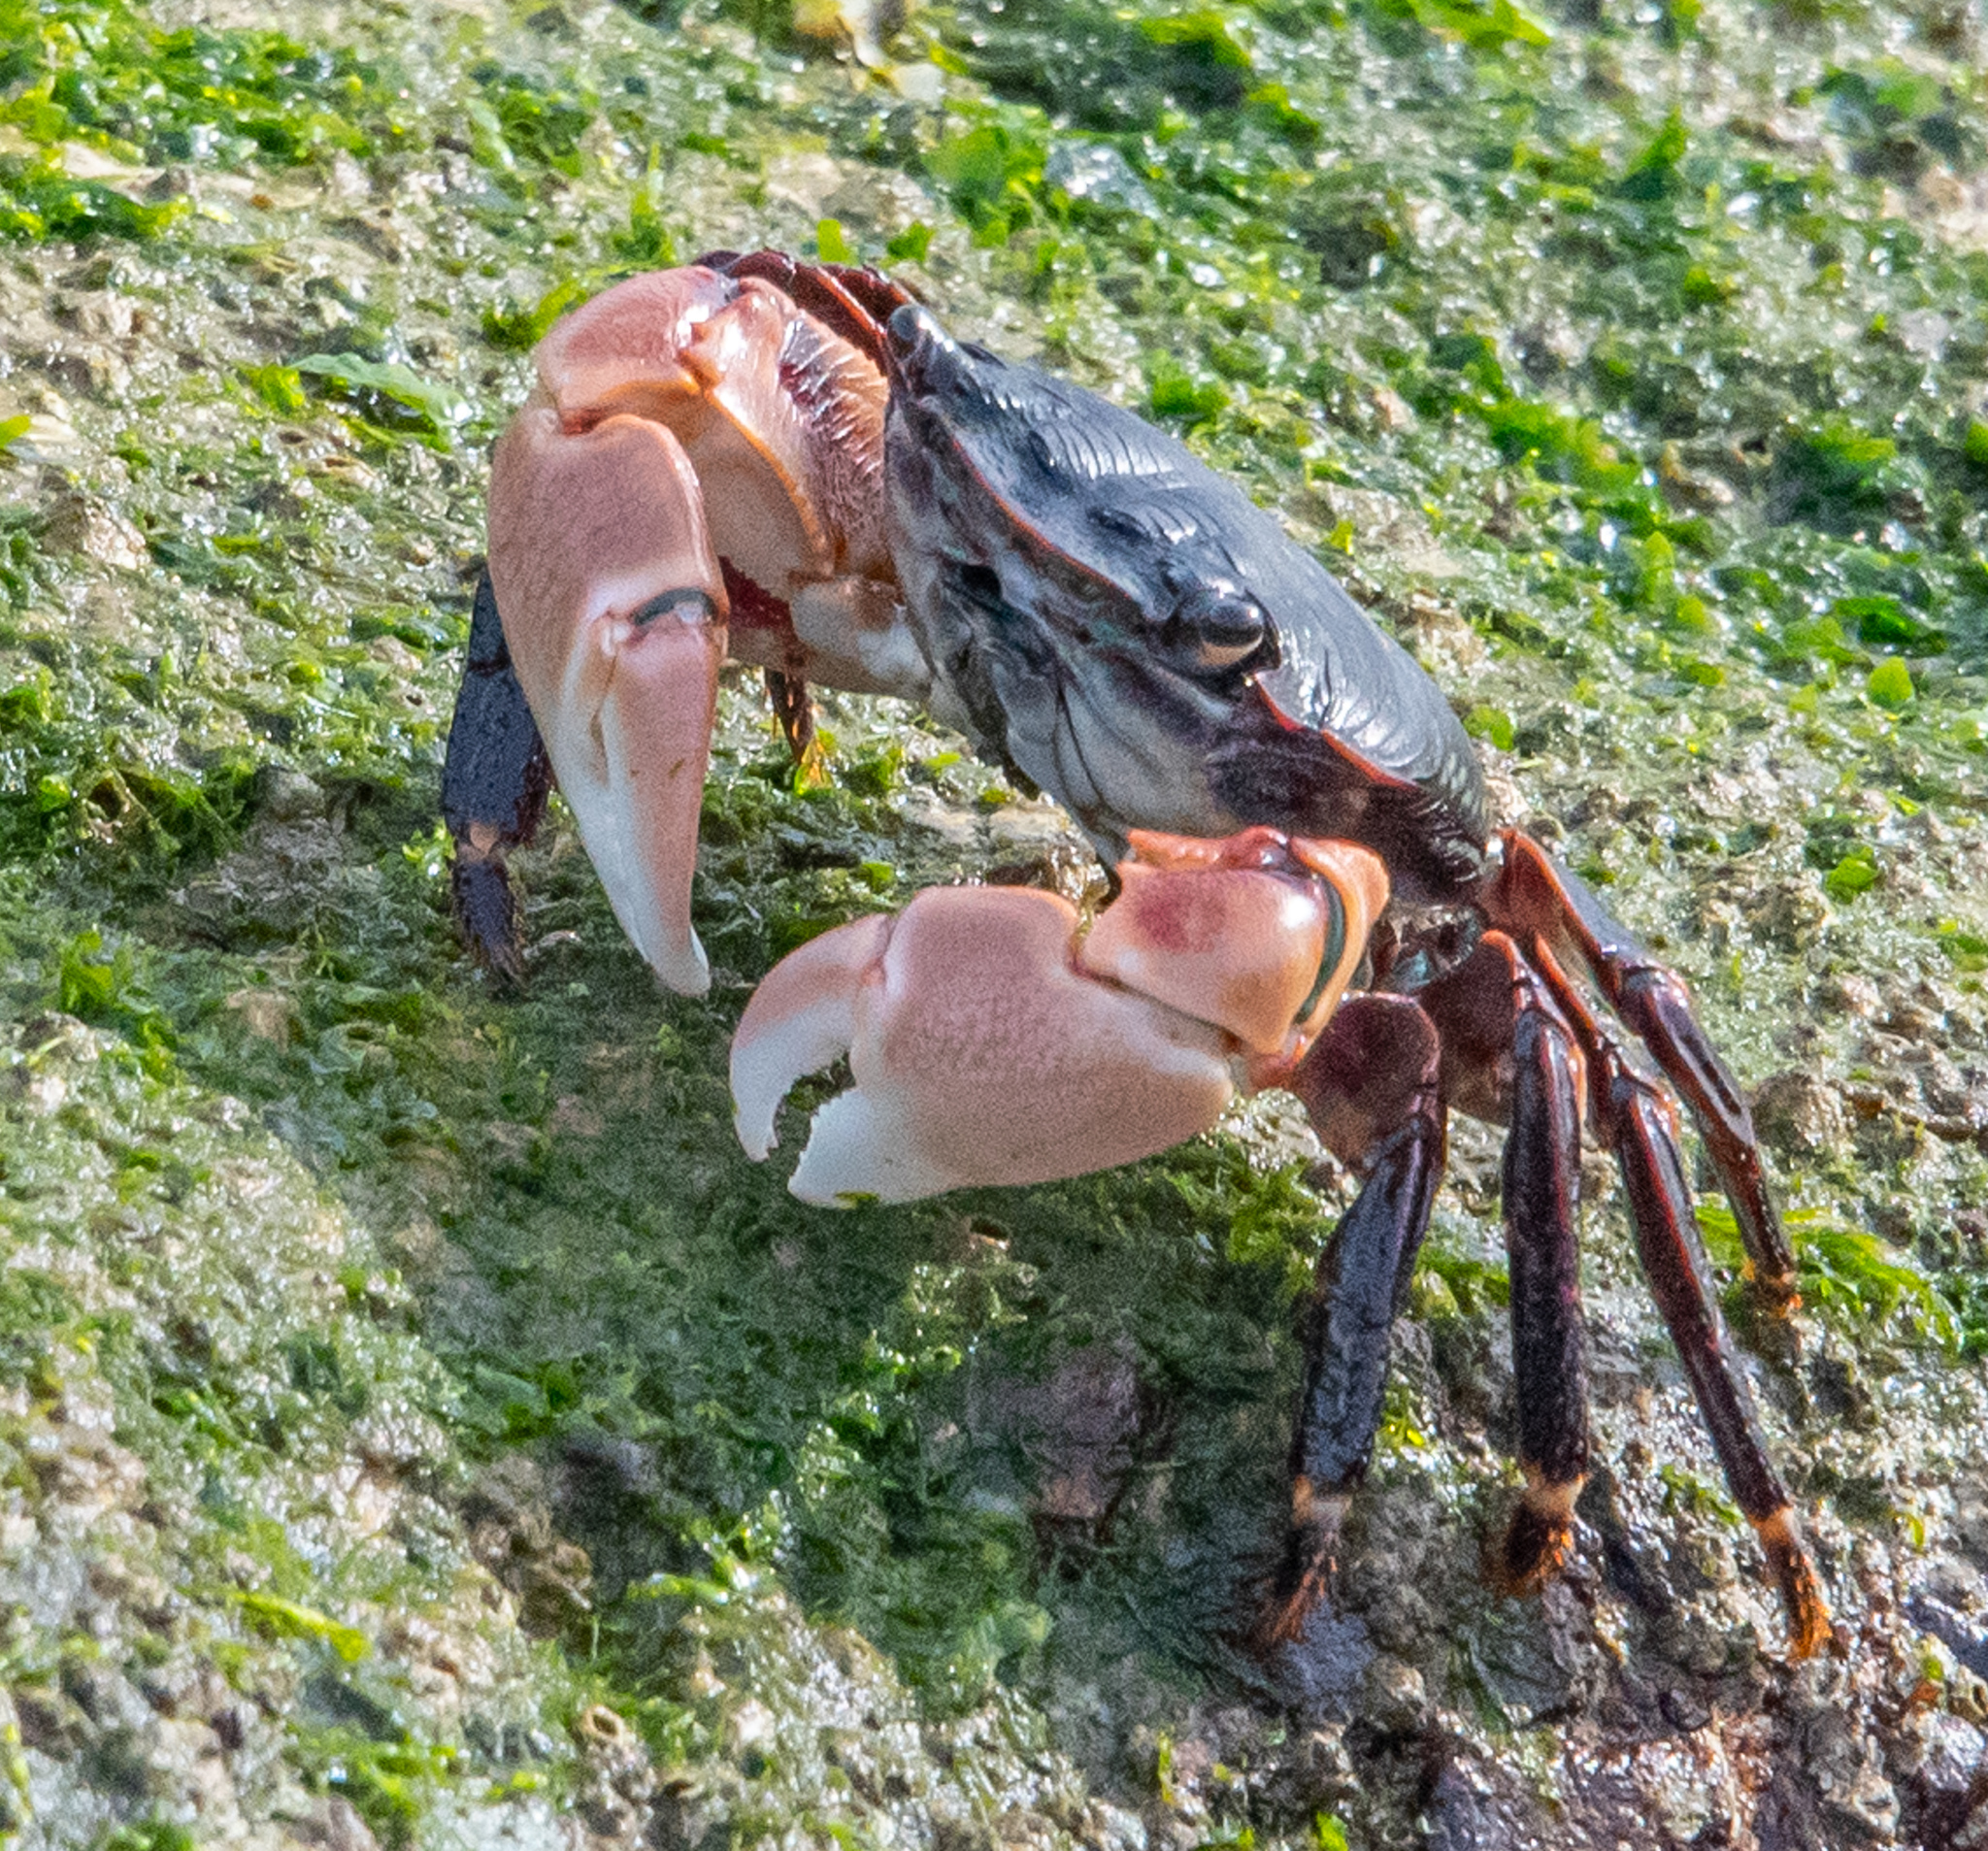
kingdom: Animalia
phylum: Arthropoda
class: Malacostraca
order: Decapoda
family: Grapsidae
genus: Pachygrapsus
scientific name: Pachygrapsus crassipes
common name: Striped shore crab
